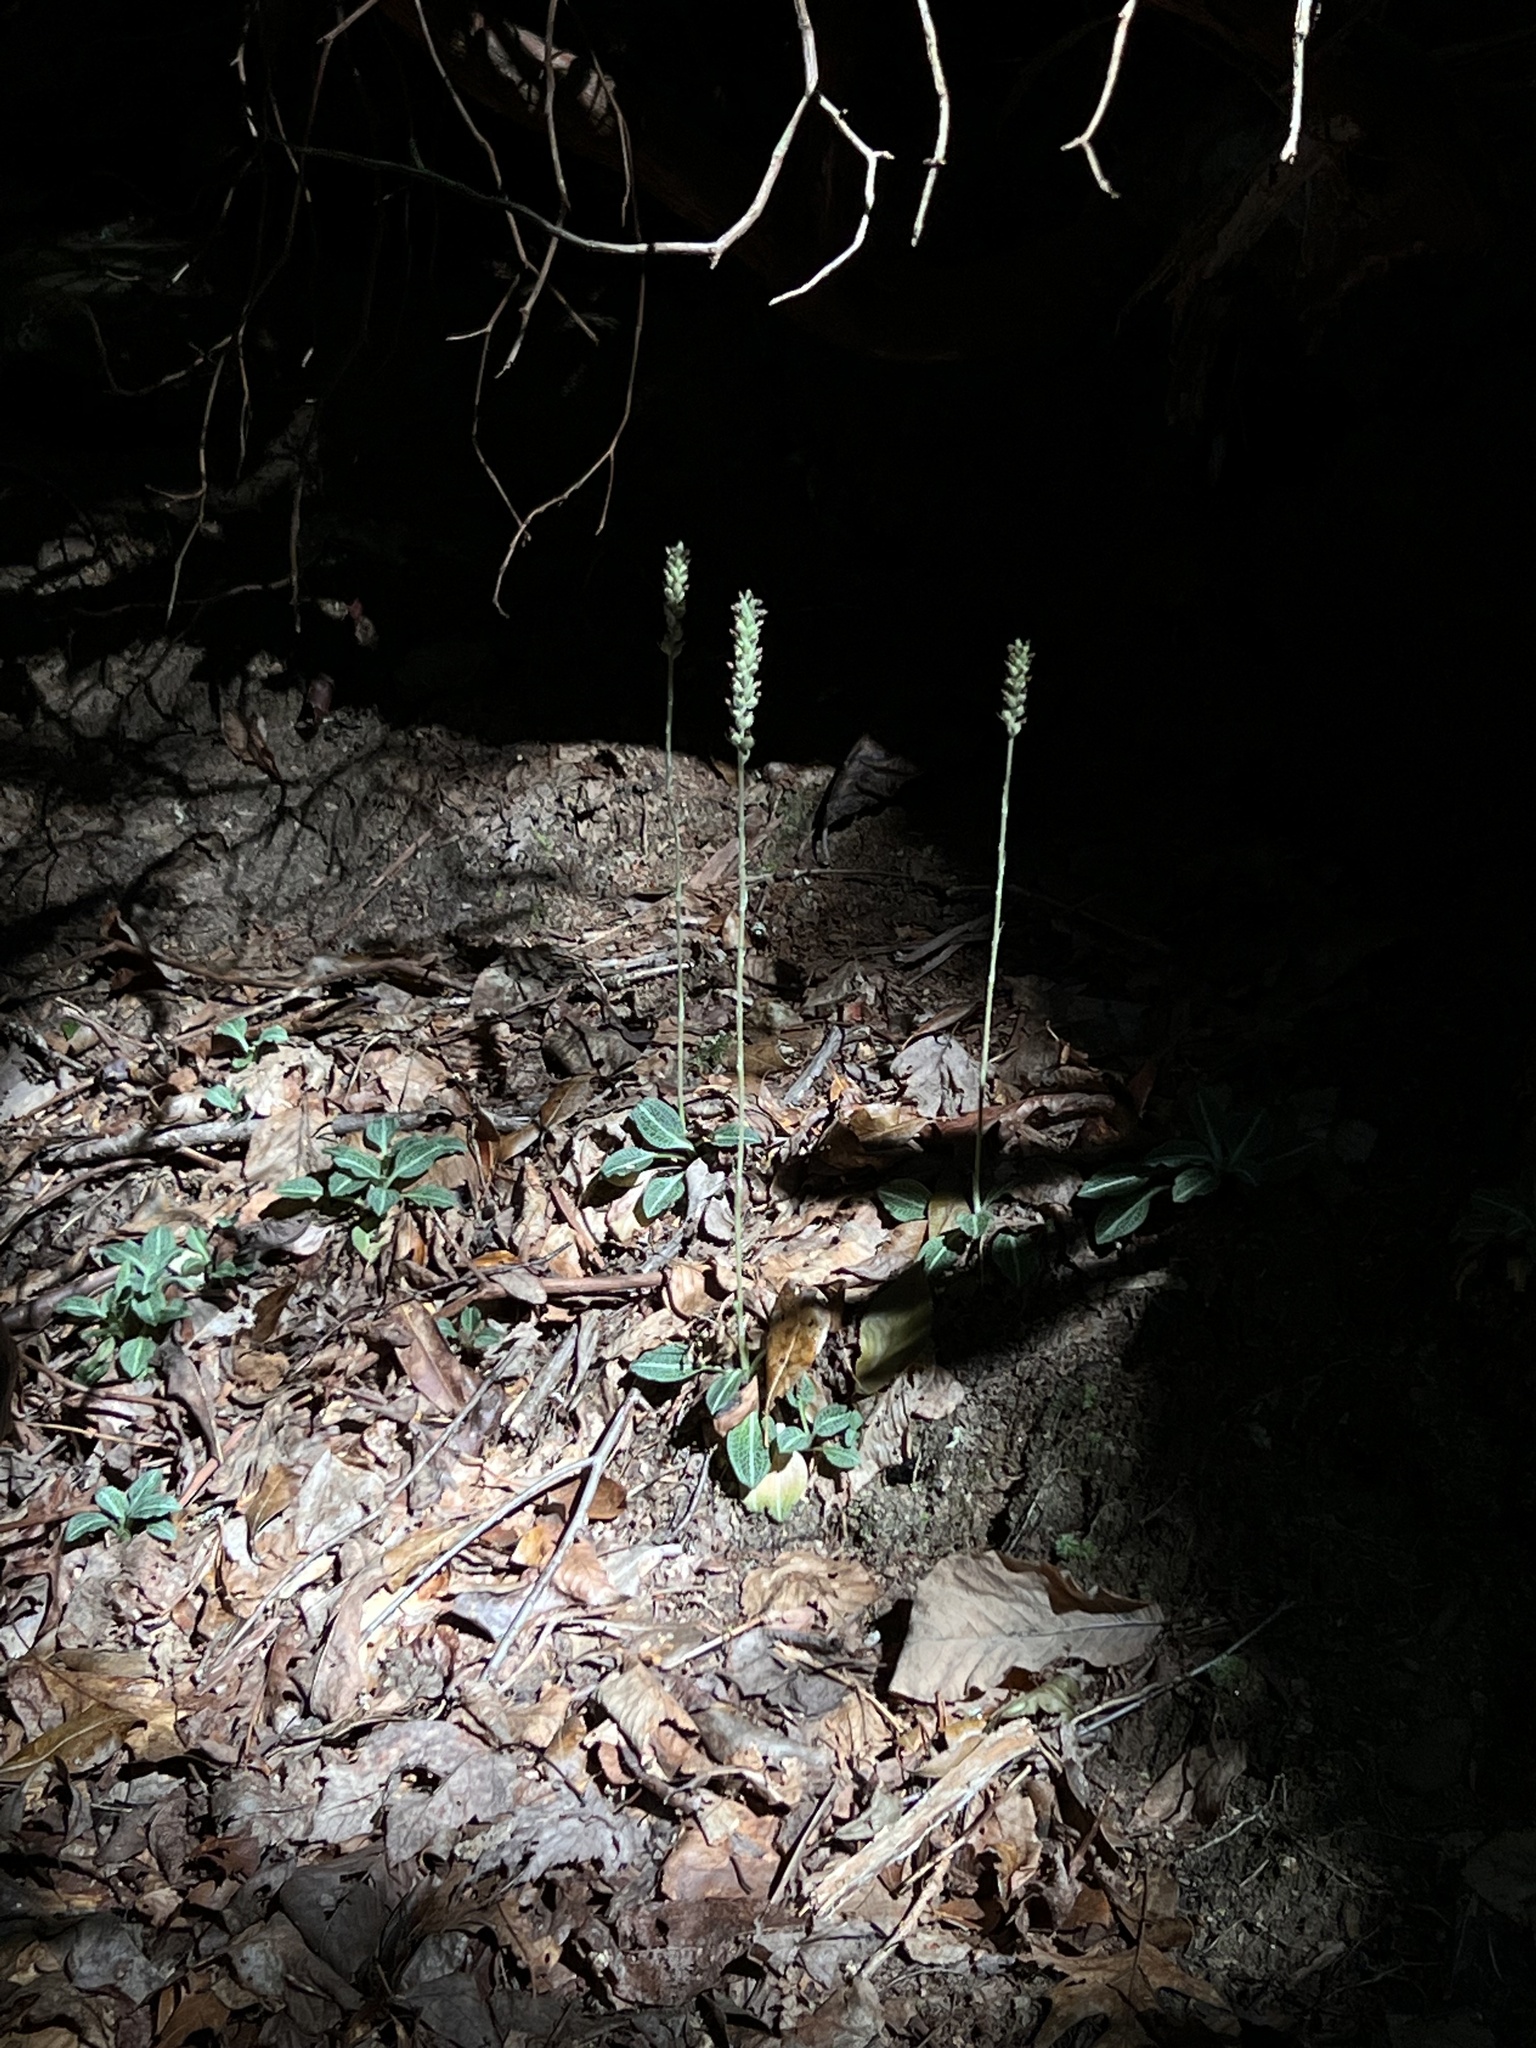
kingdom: Plantae
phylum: Tracheophyta
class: Liliopsida
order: Asparagales
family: Orchidaceae
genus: Goodyera
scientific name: Goodyera pubescens
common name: Downy rattlesnake-plantain
